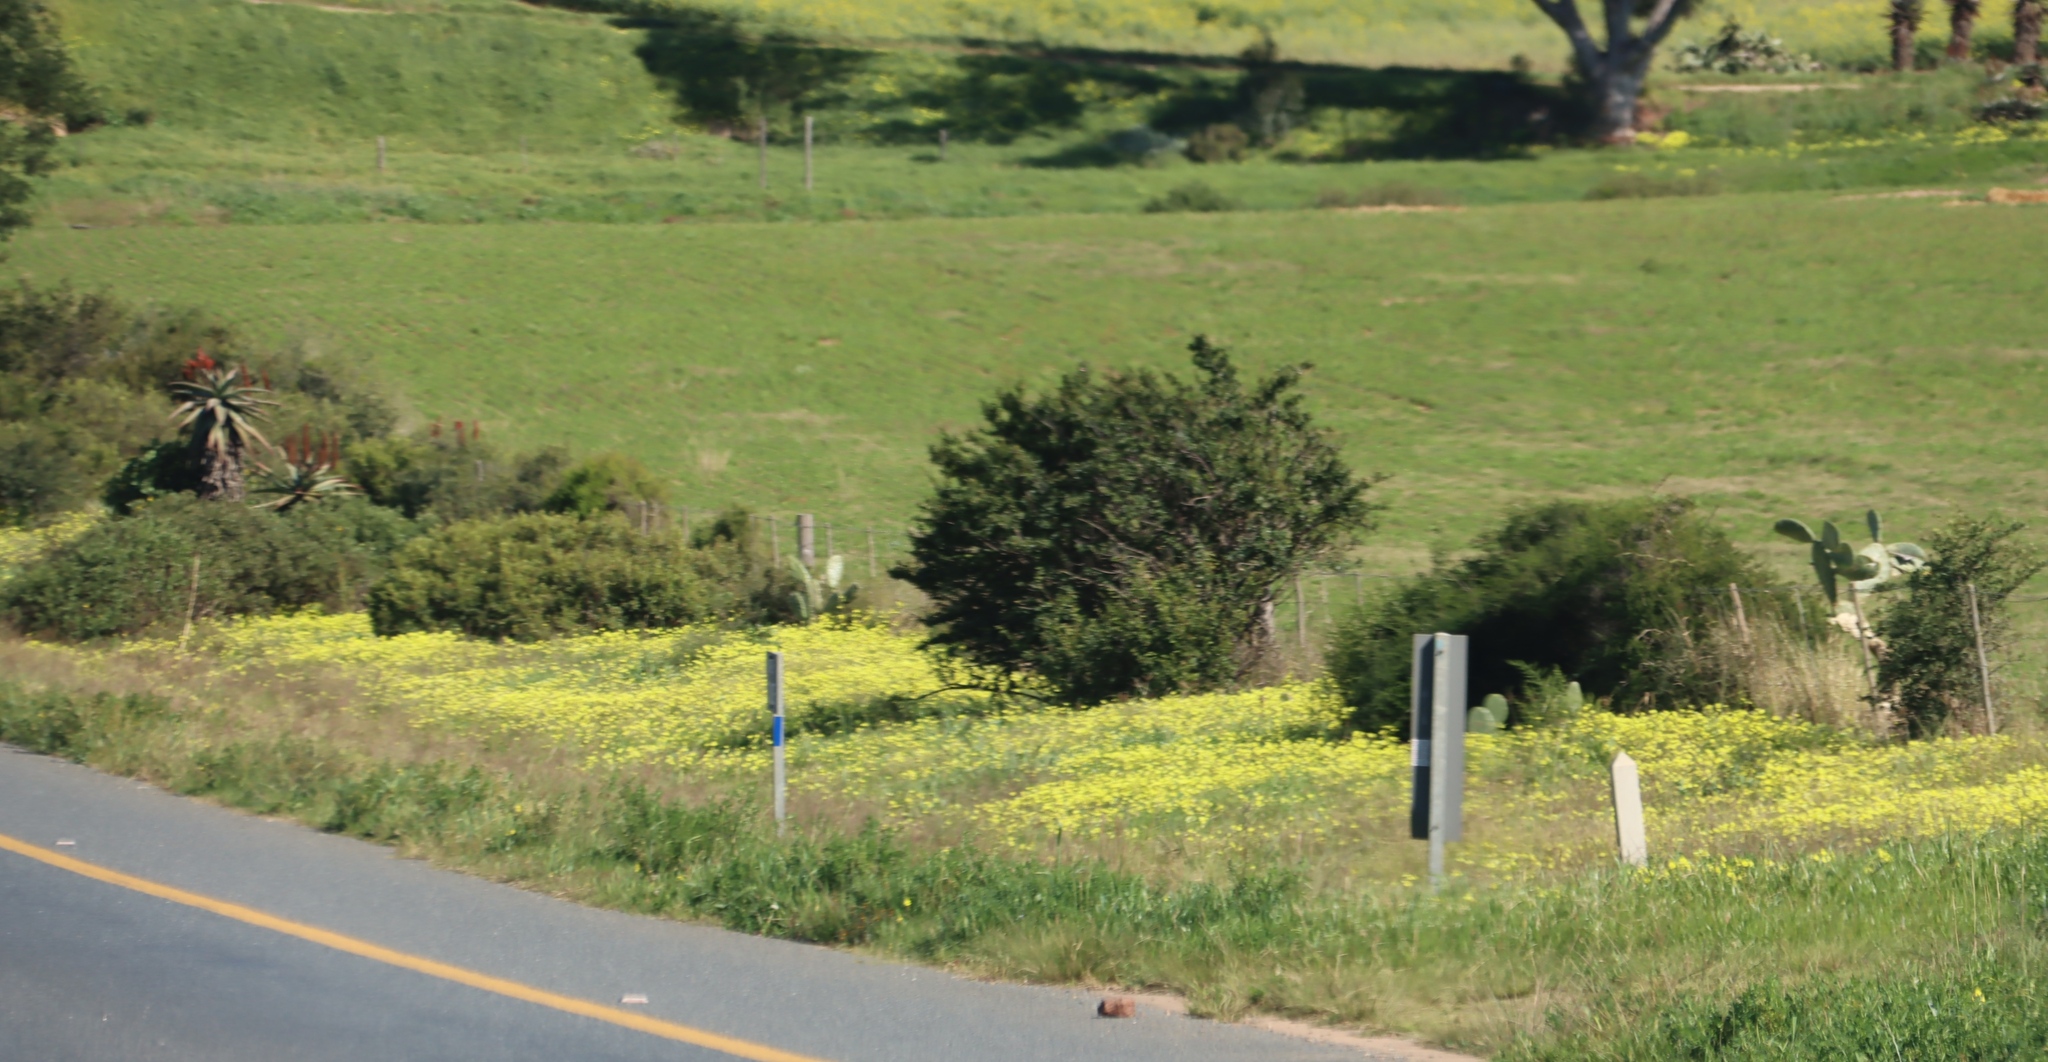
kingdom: Plantae
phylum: Tracheophyta
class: Magnoliopsida
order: Caryophyllales
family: Cactaceae
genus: Opuntia
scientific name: Opuntia ficus-indica
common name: Barbary fig
